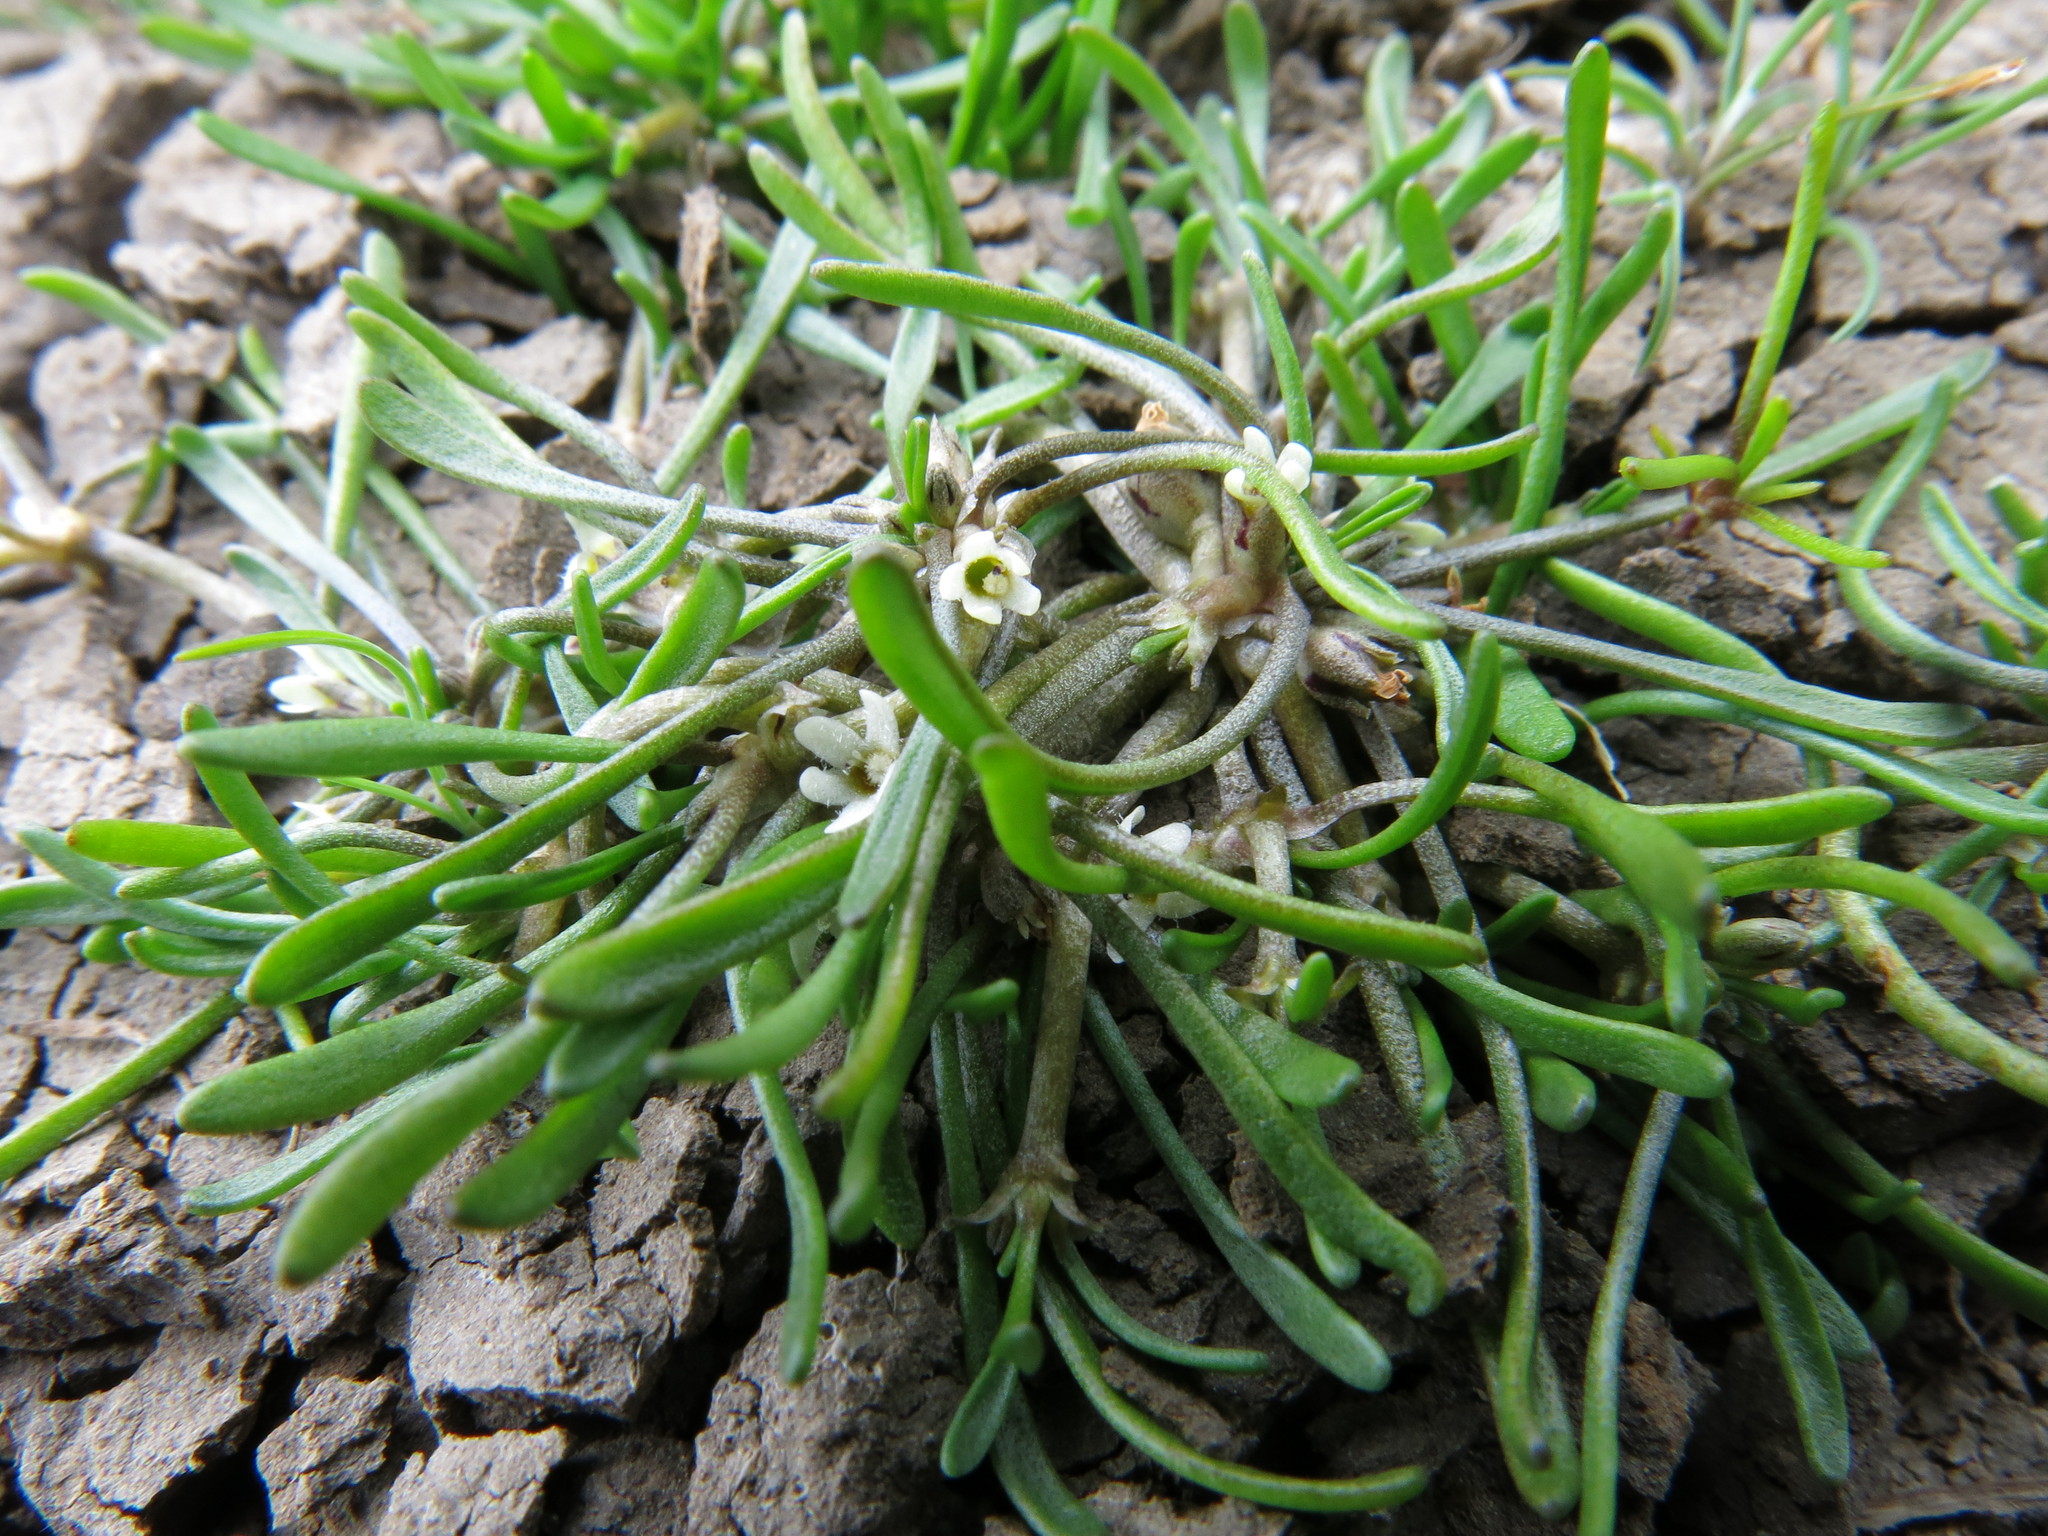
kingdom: Plantae
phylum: Tracheophyta
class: Magnoliopsida
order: Lamiales
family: Scrophulariaceae
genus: Limosella
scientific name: Limosella australis
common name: Welsh mudwort
